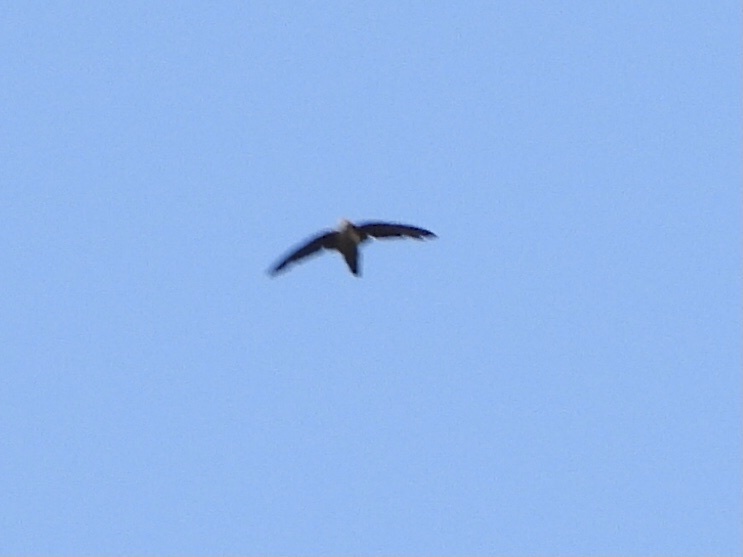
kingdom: Animalia
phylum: Chordata
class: Aves
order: Apodiformes
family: Apodidae
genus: Chaetura
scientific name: Chaetura vauxi
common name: Vaux's swift
